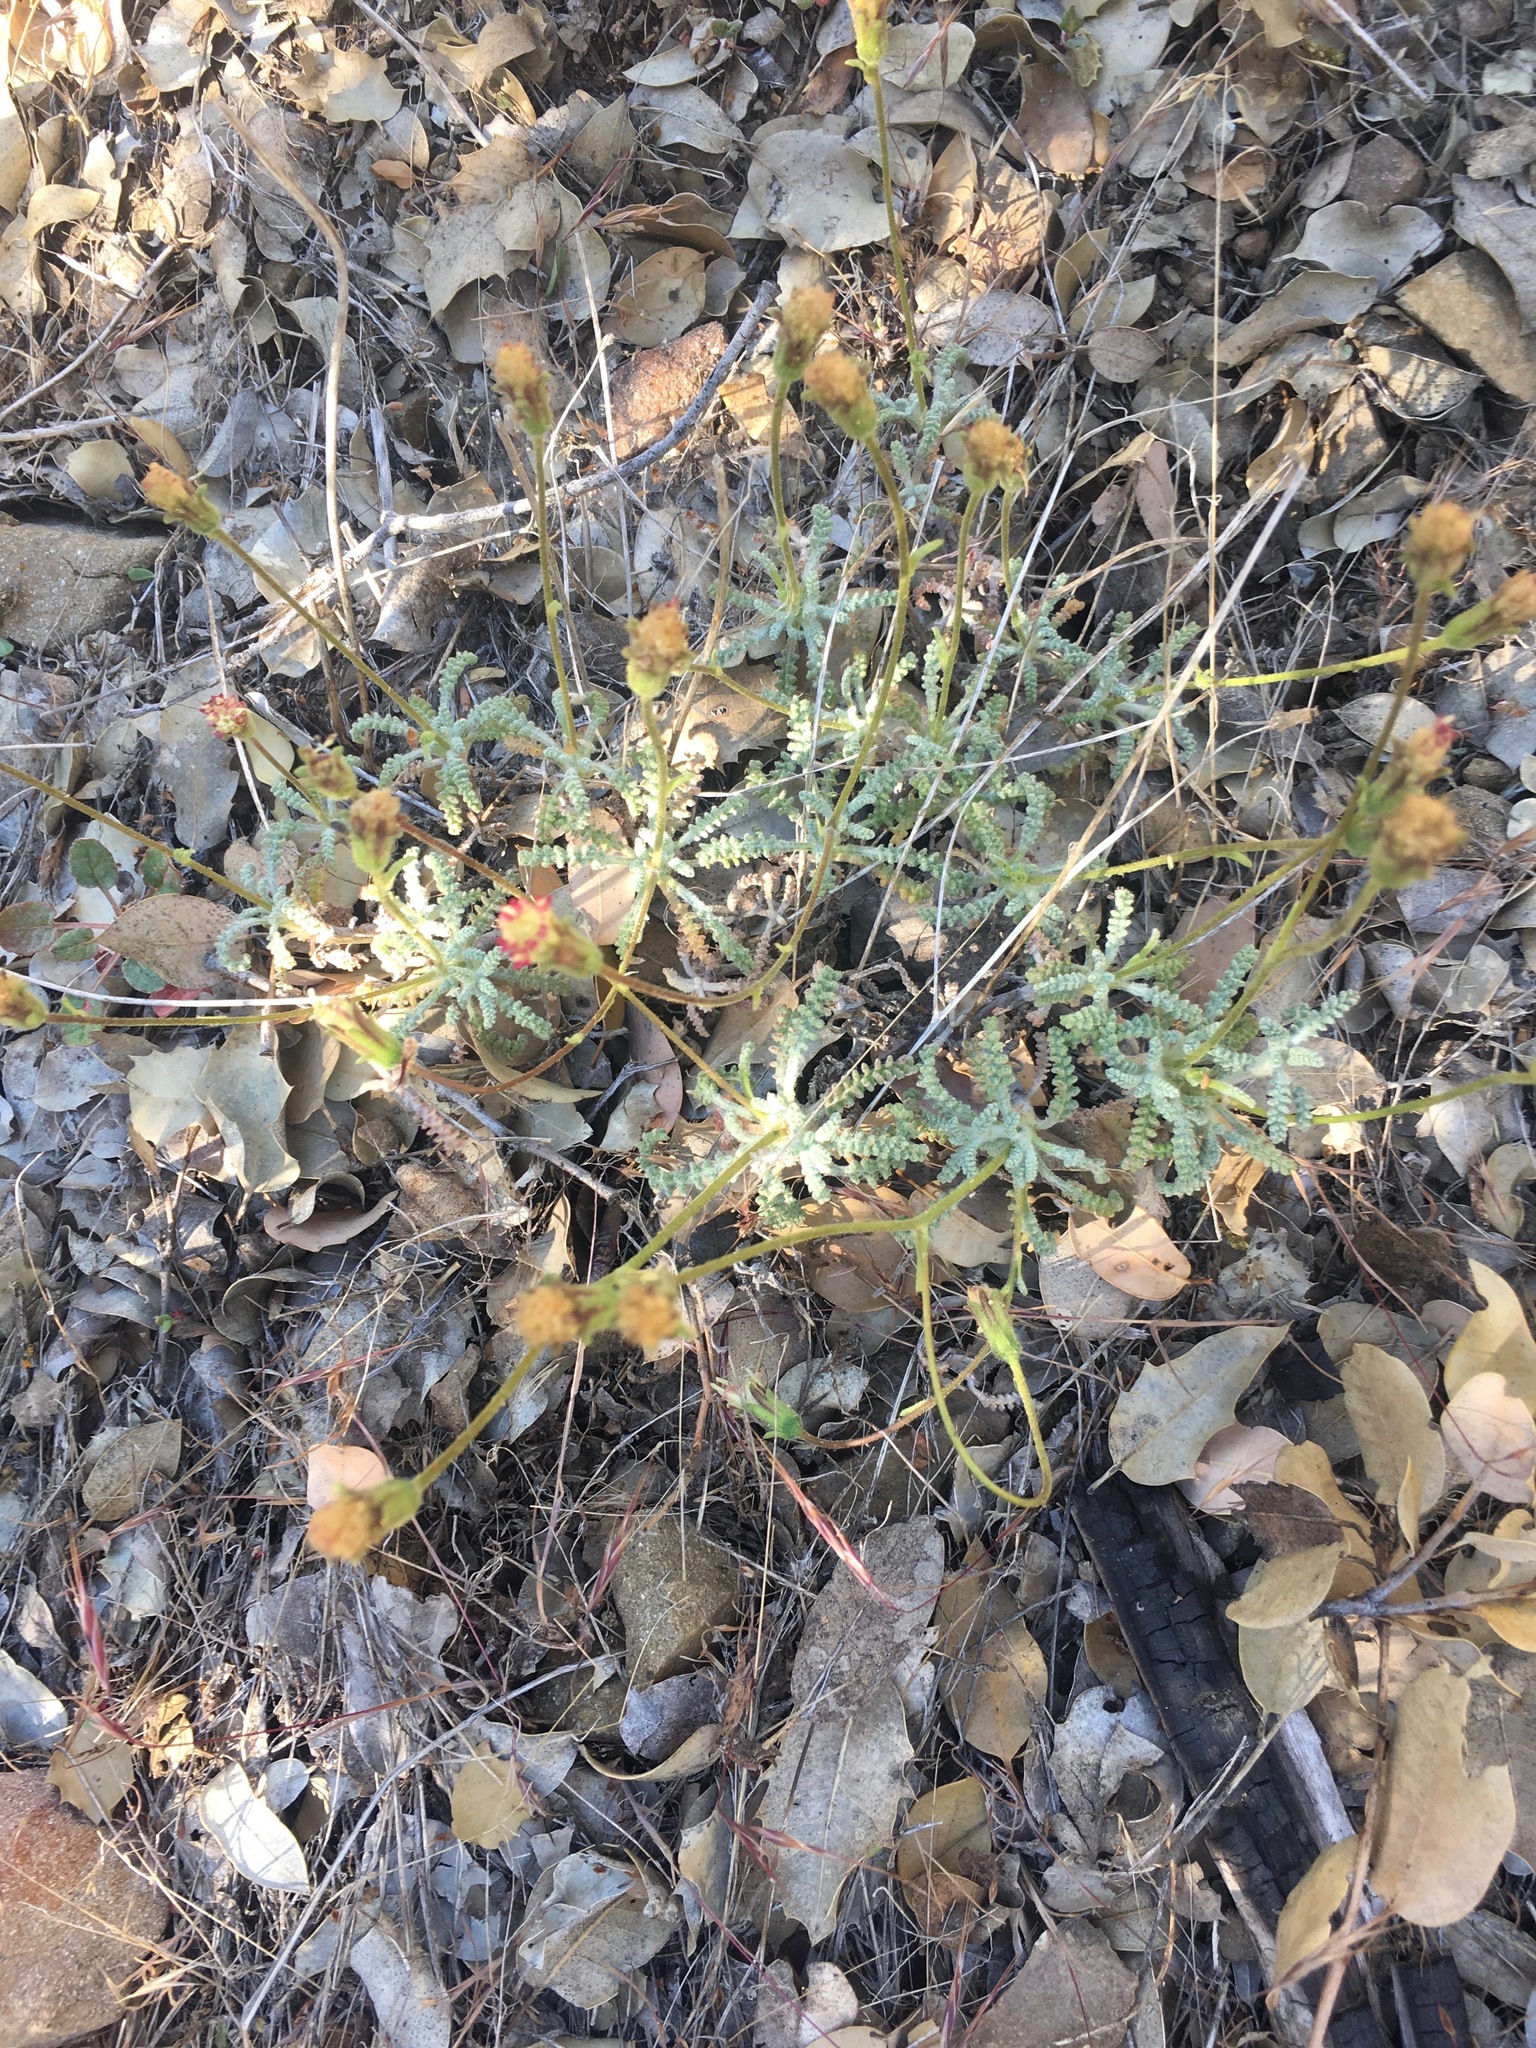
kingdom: Plantae
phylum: Tracheophyta
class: Magnoliopsida
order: Asterales
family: Asteraceae
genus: Chaenactis
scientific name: Chaenactis santolinoides
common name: Santolina pincushion
